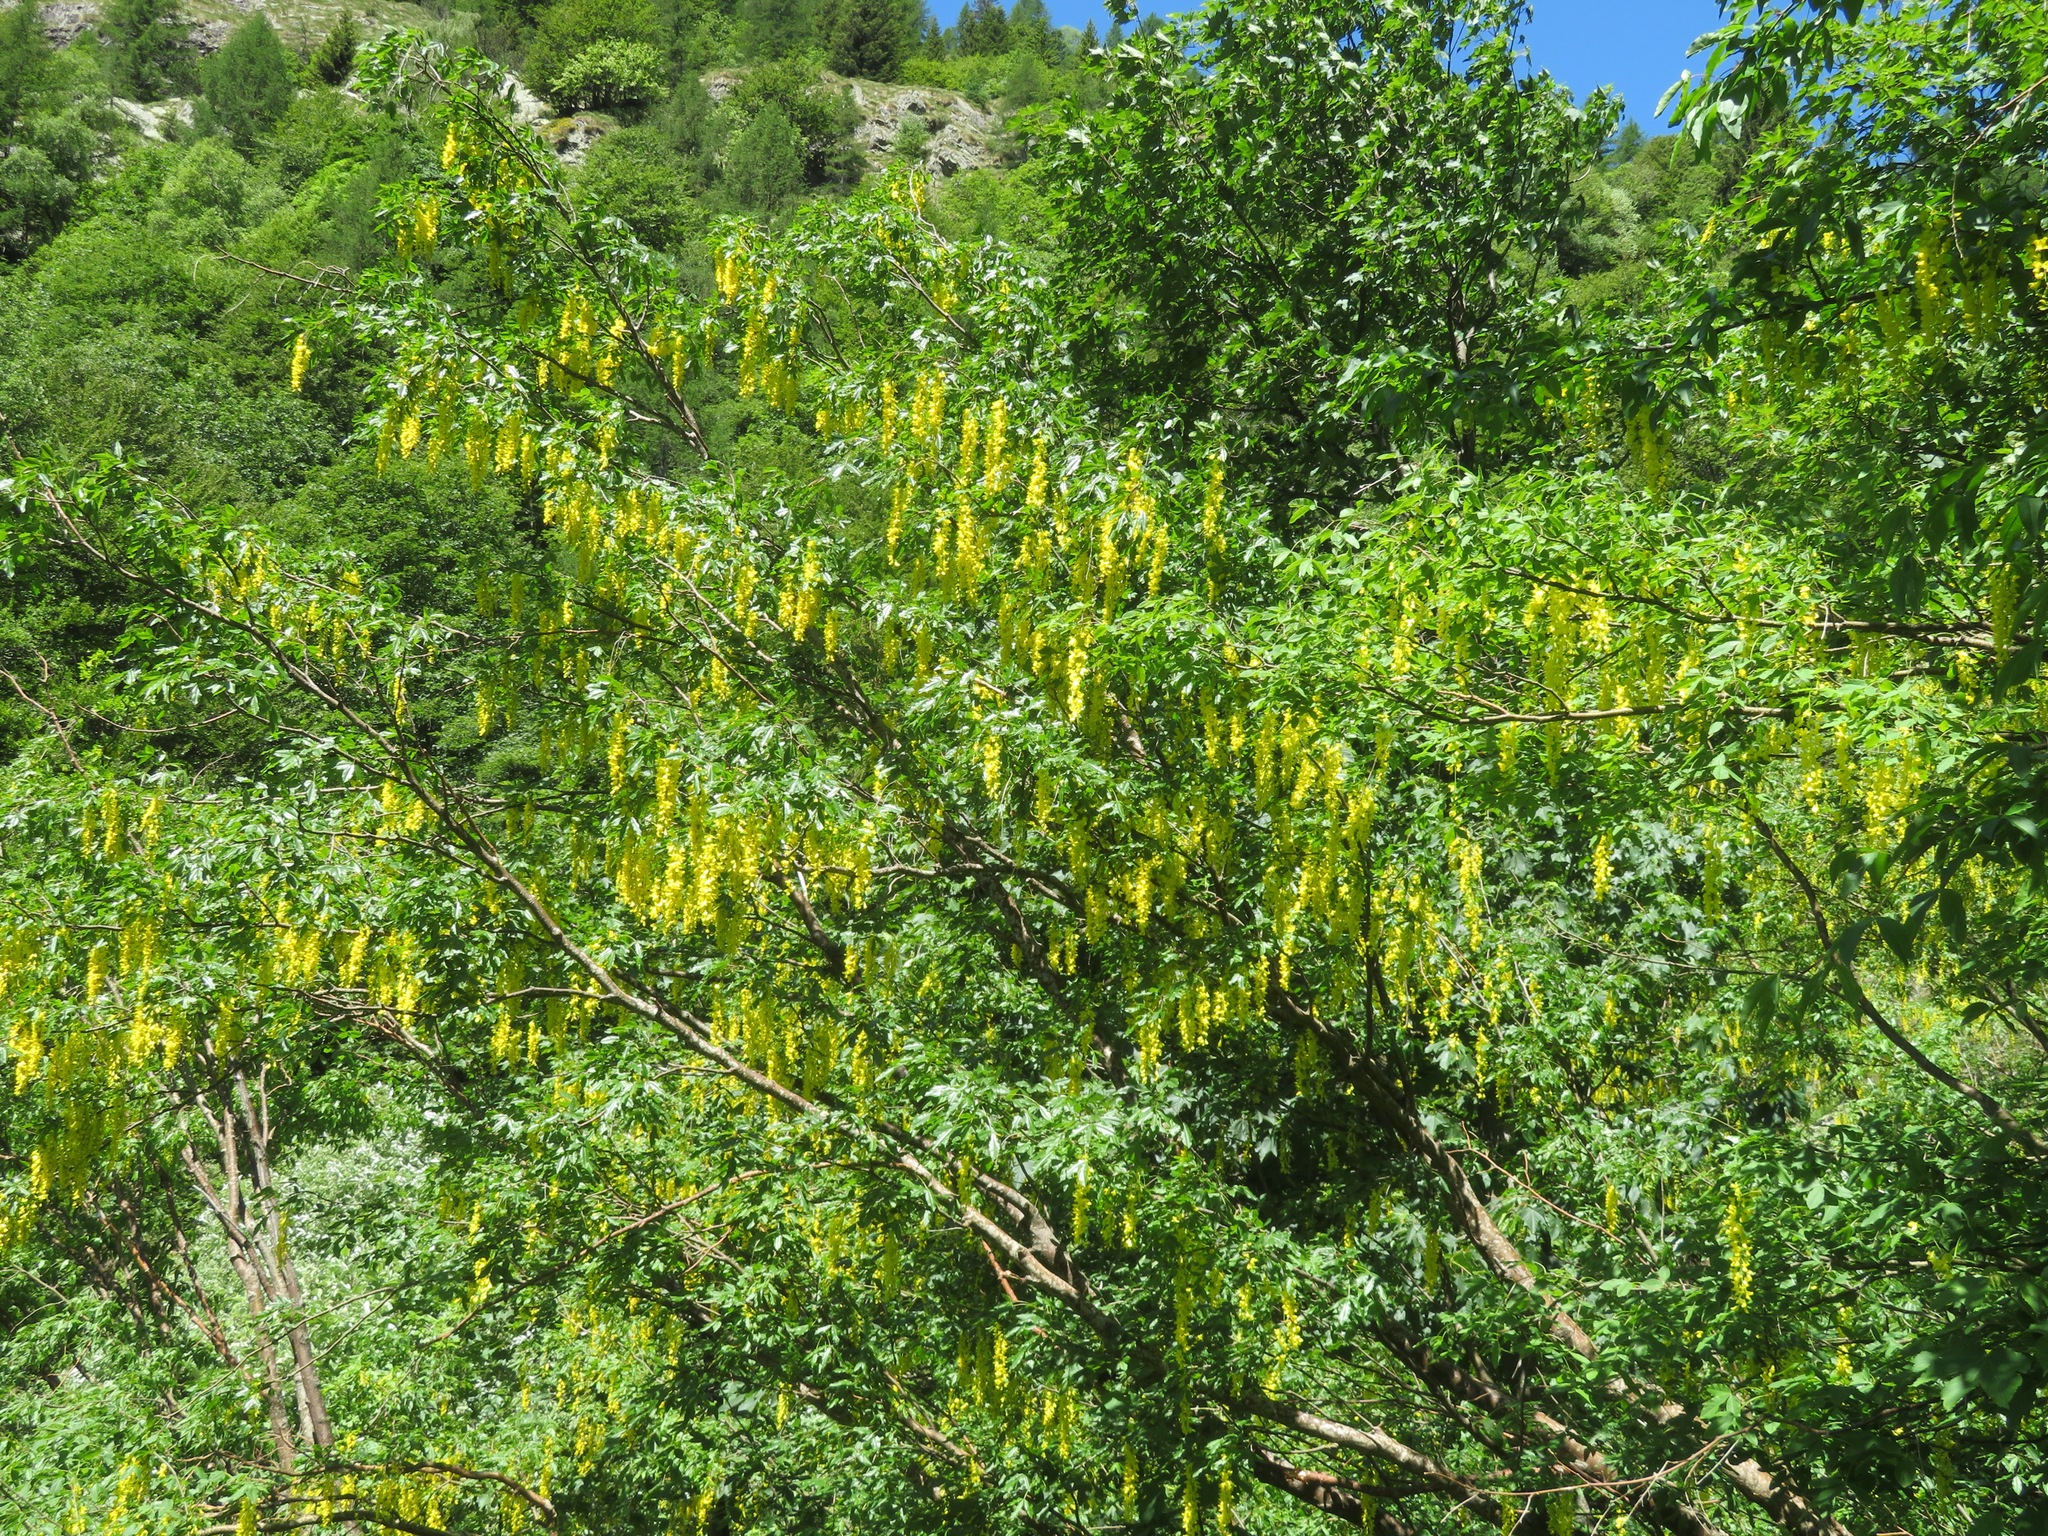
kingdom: Plantae
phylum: Tracheophyta
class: Magnoliopsida
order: Fabales
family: Fabaceae
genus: Laburnum
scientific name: Laburnum alpinum
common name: Scottish laburnum
